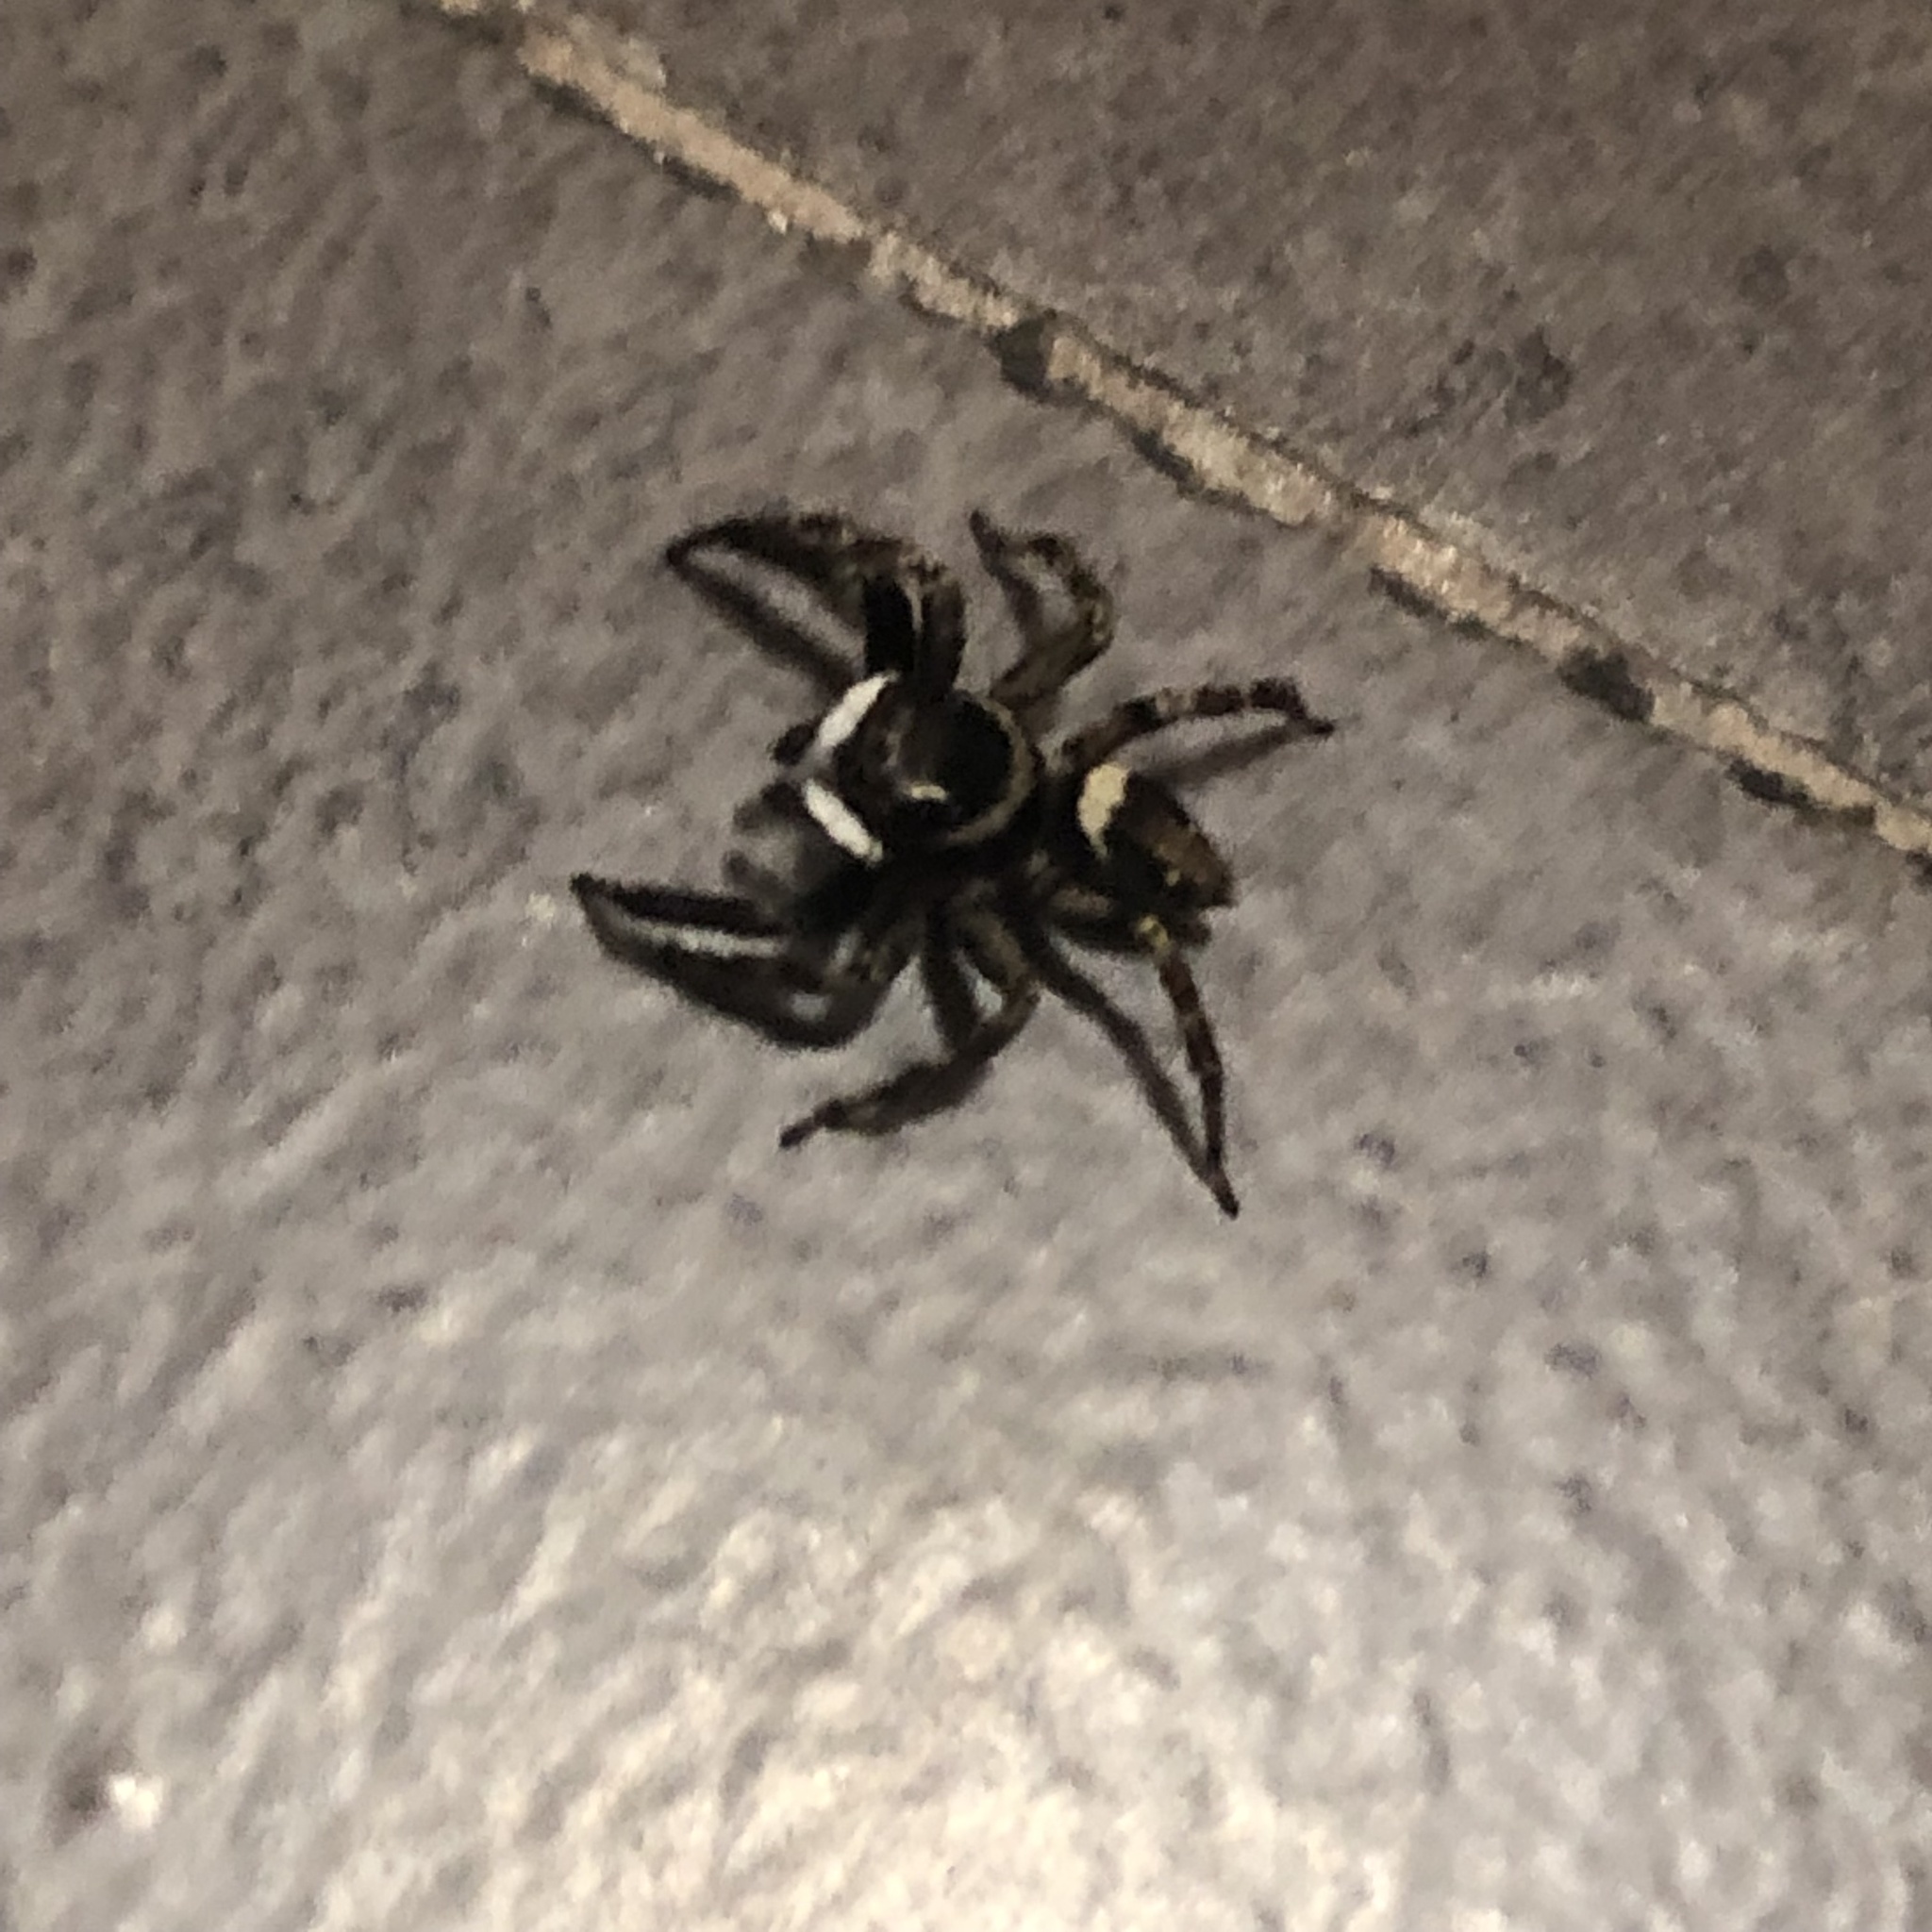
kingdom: Animalia
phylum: Arthropoda
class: Arachnida
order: Araneae
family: Salticidae
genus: Hasarius
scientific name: Hasarius adansoni
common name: Jumping spider
